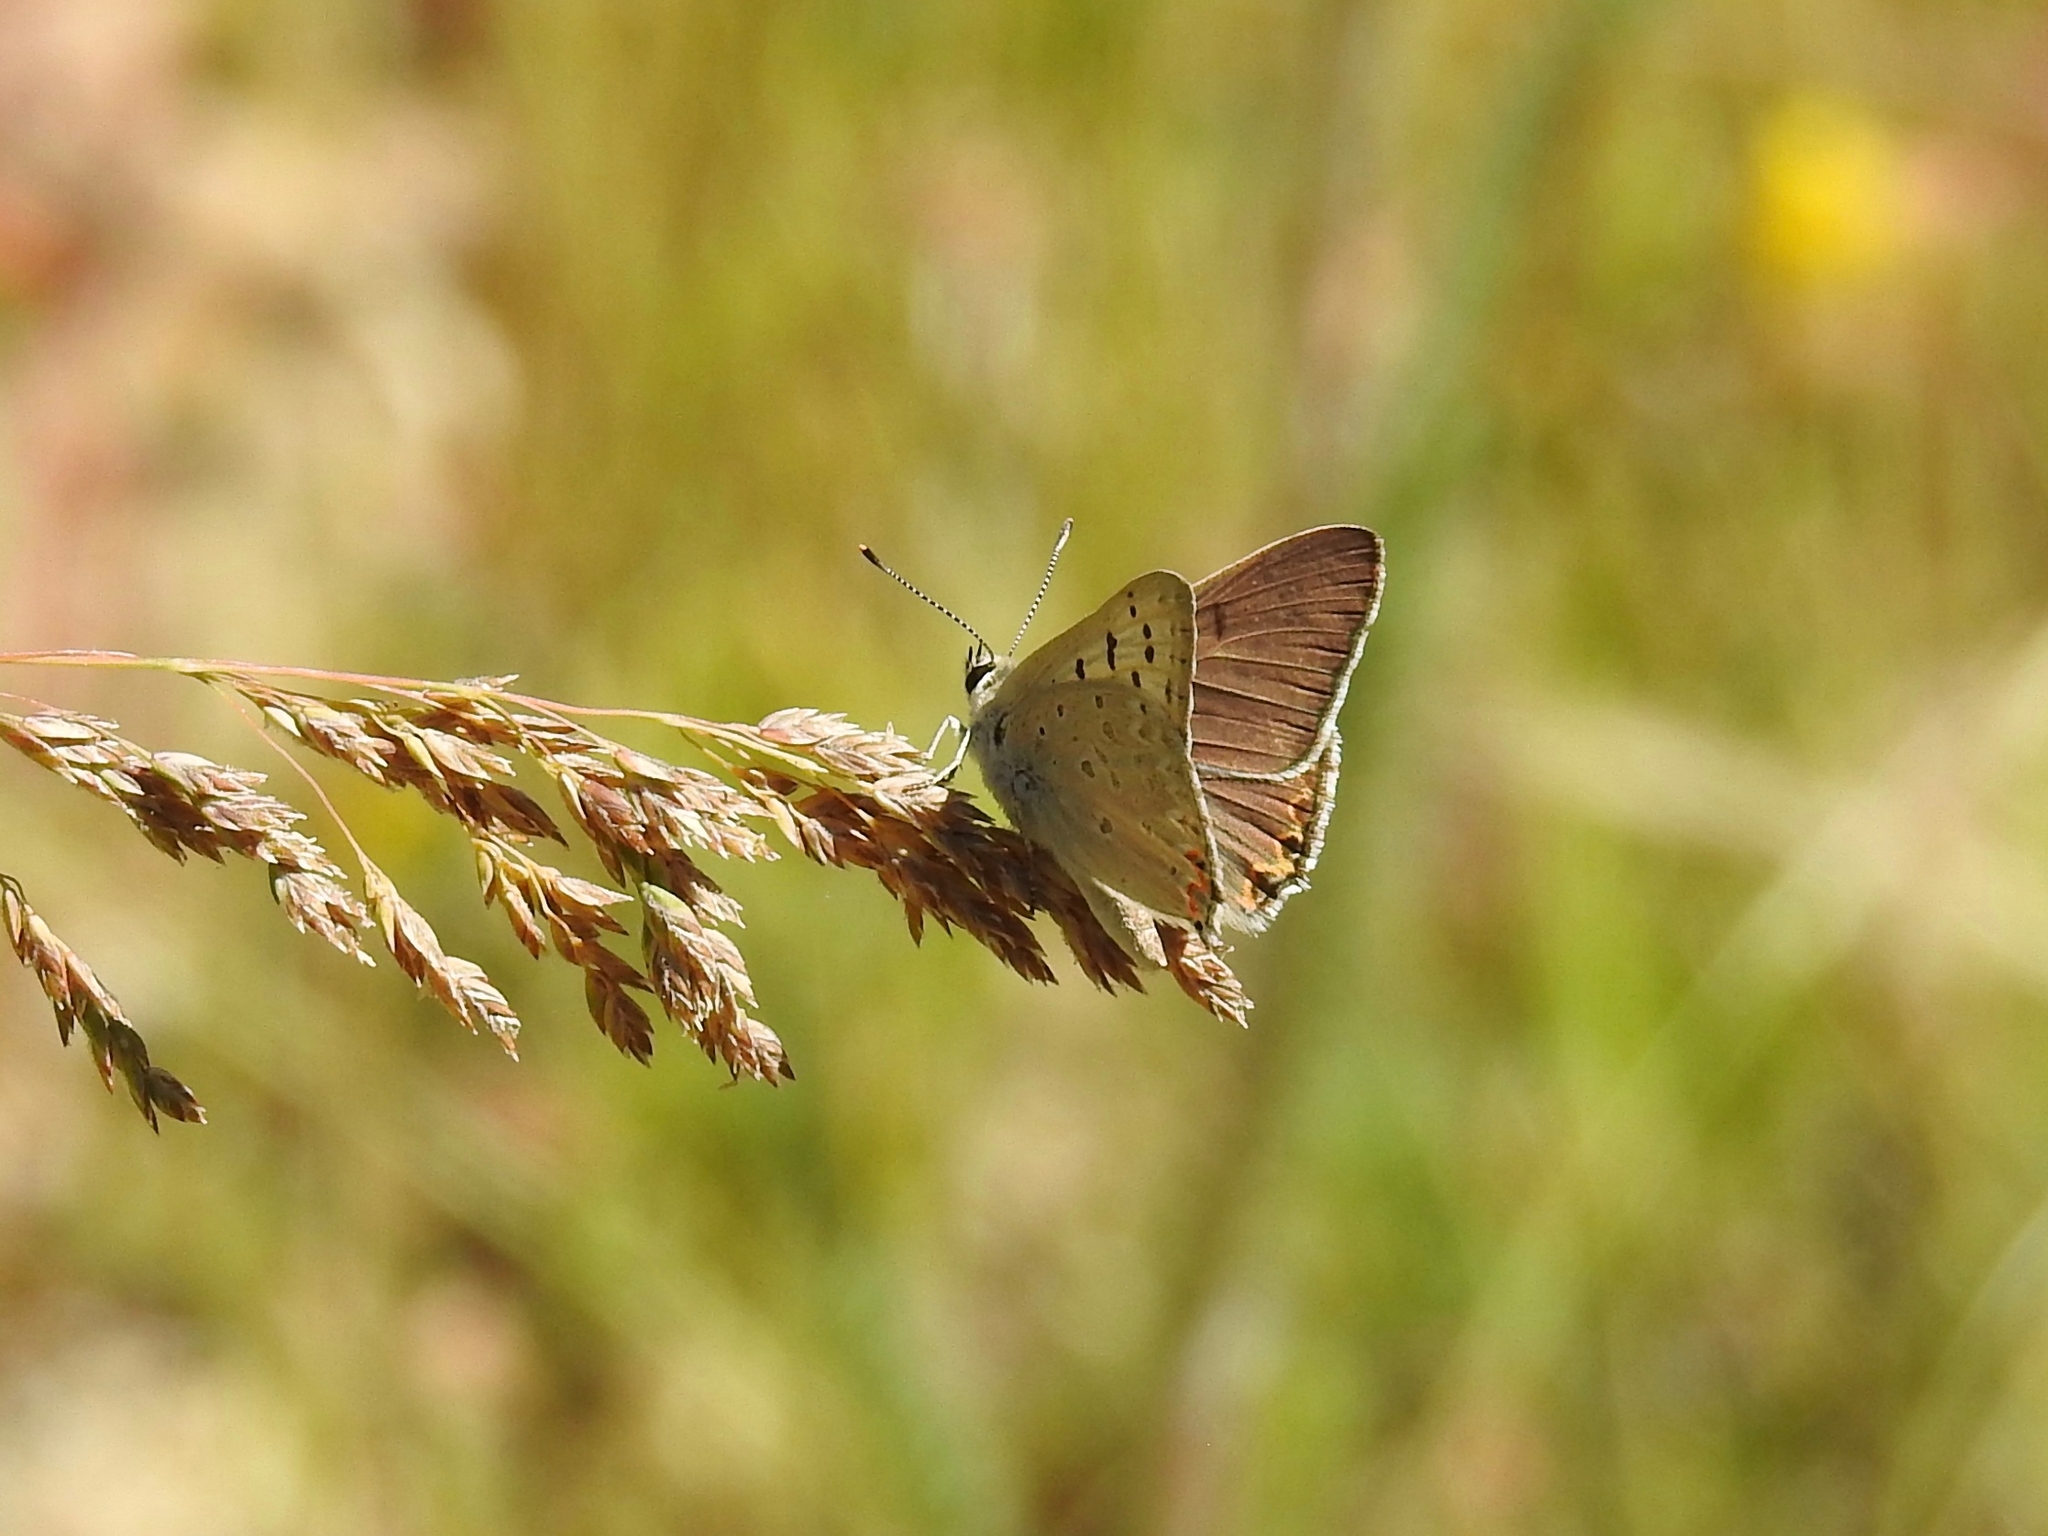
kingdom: Animalia
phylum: Arthropoda
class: Insecta
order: Lepidoptera
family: Lycaenidae
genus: Tharsalea
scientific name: Tharsalea xanthoides
